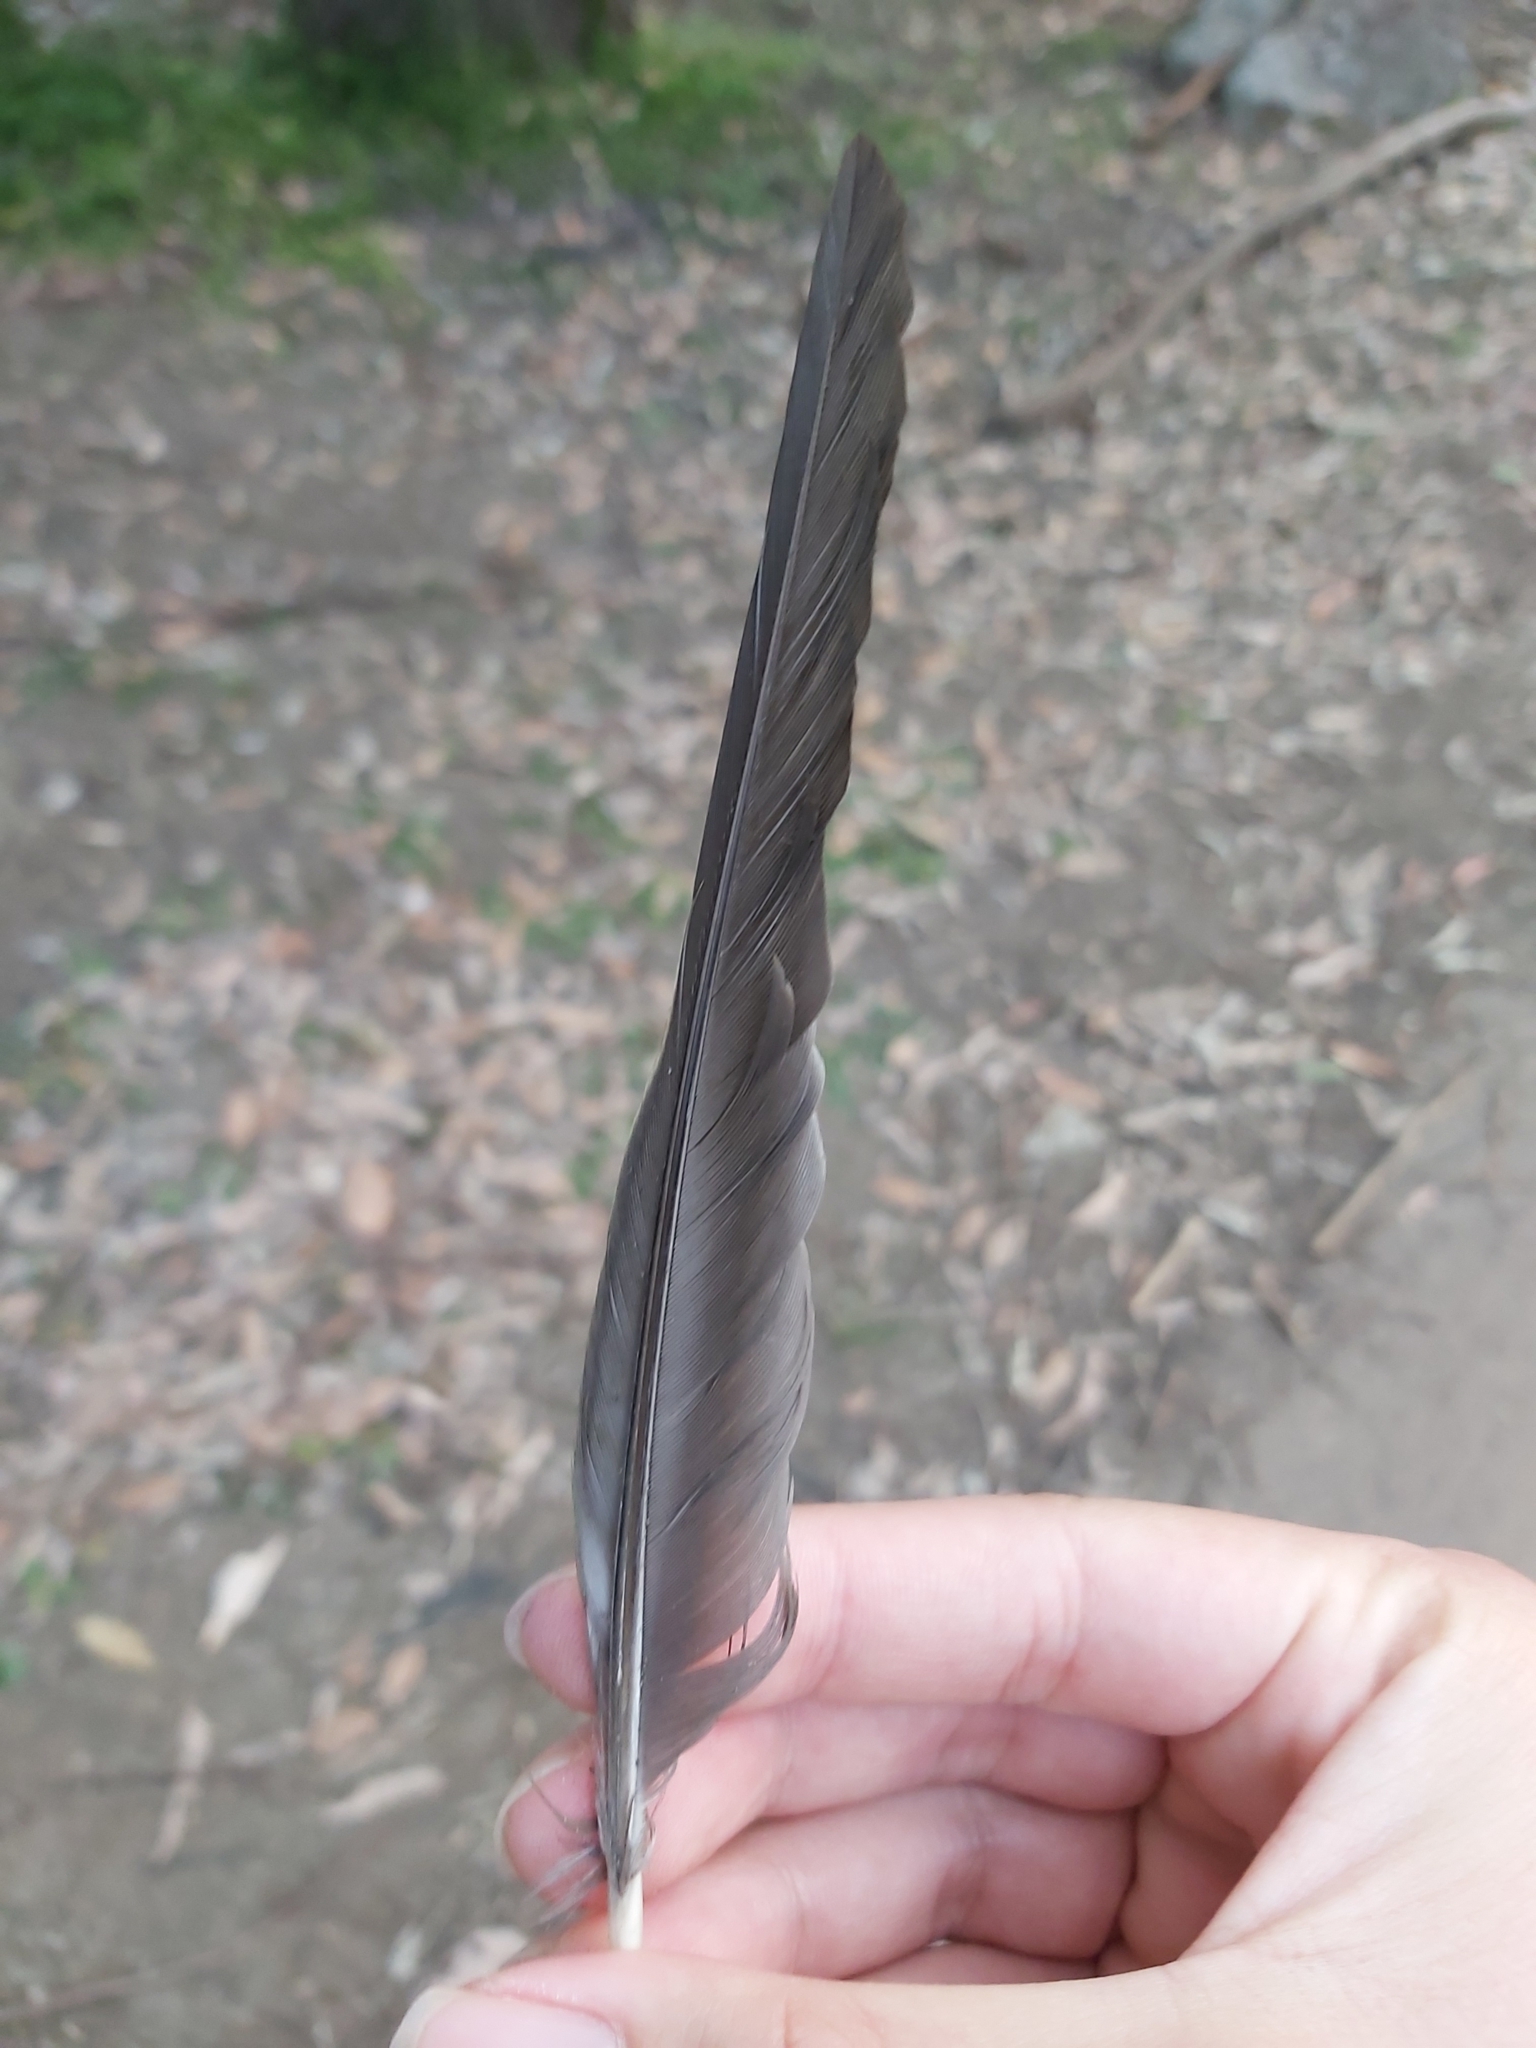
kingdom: Animalia
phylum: Chordata
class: Aves
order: Psittaciformes
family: Psittacidae
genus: Alisterus
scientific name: Alisterus scapularis
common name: Australian king parrot
